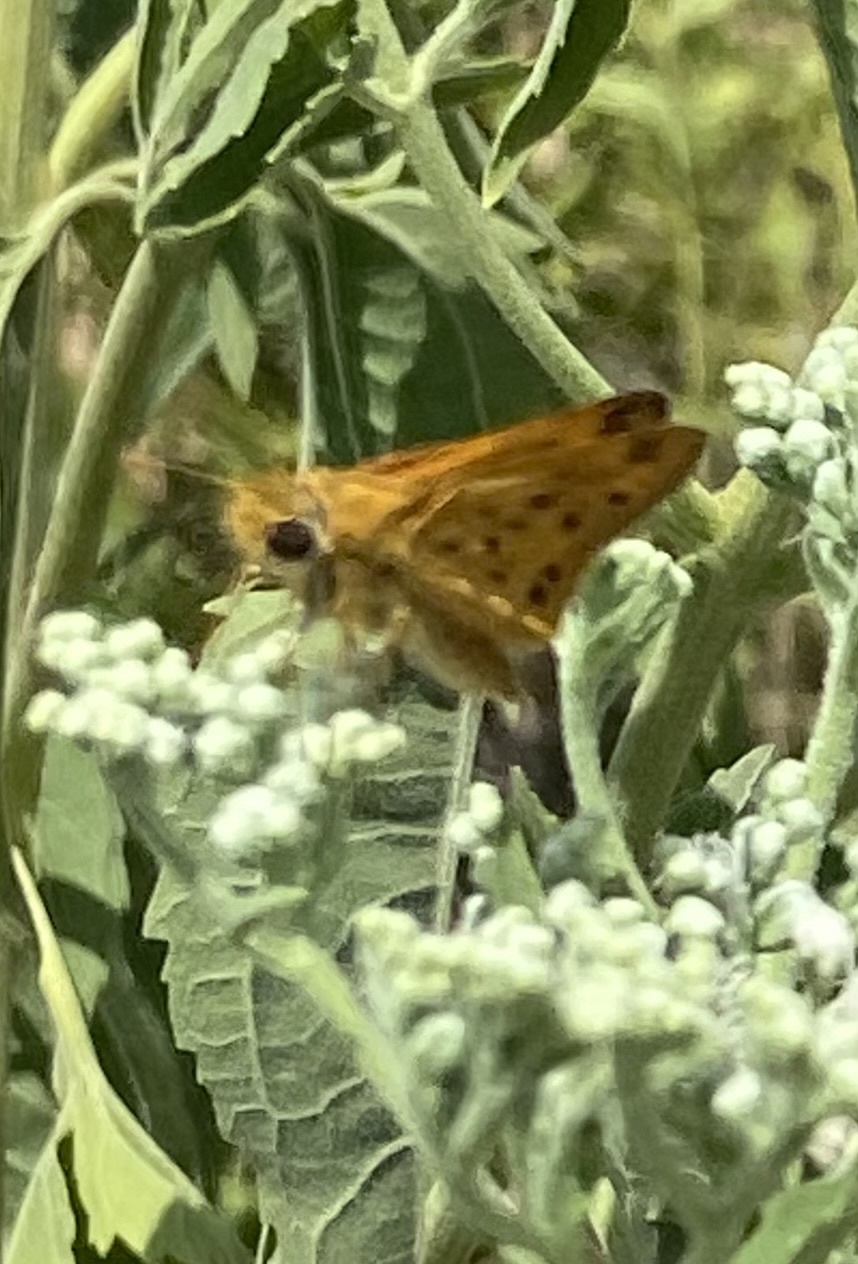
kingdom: Animalia
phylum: Arthropoda
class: Insecta
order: Lepidoptera
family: Hesperiidae
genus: Hylephila
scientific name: Hylephila phyleus
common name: Fiery skipper
